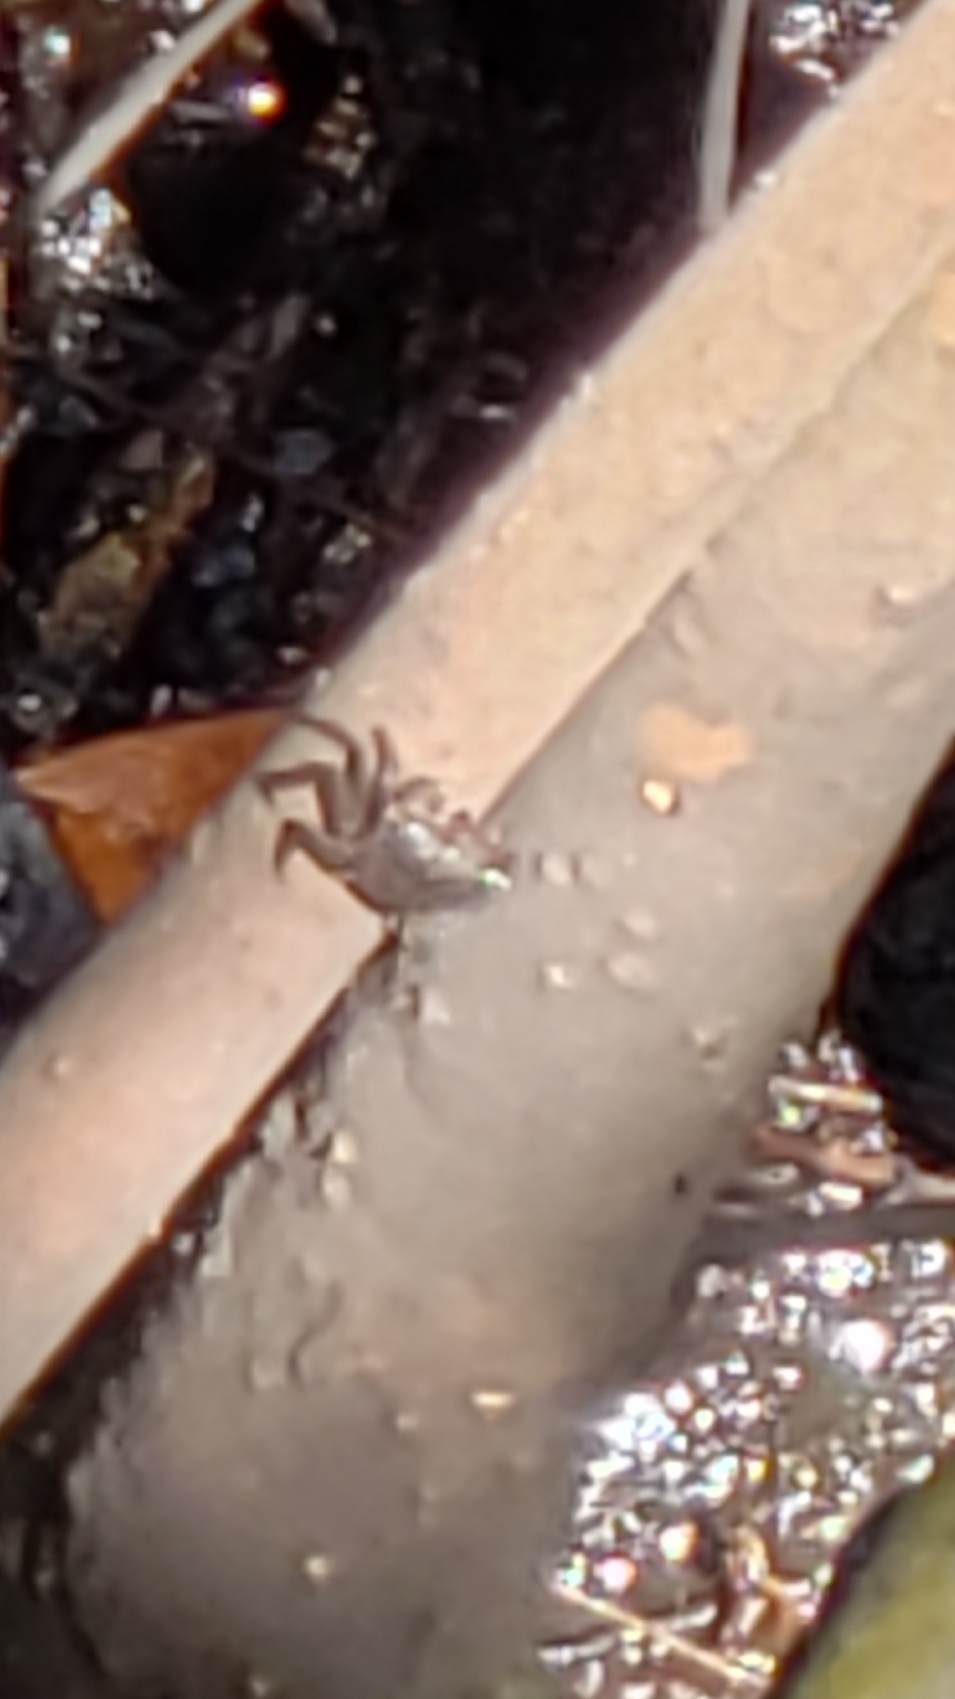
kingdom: Animalia
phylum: Arthropoda
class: Malacostraca
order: Decapoda
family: Sesarmidae
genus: Aratus
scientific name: Aratus pisonii
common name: Mangrove crab
